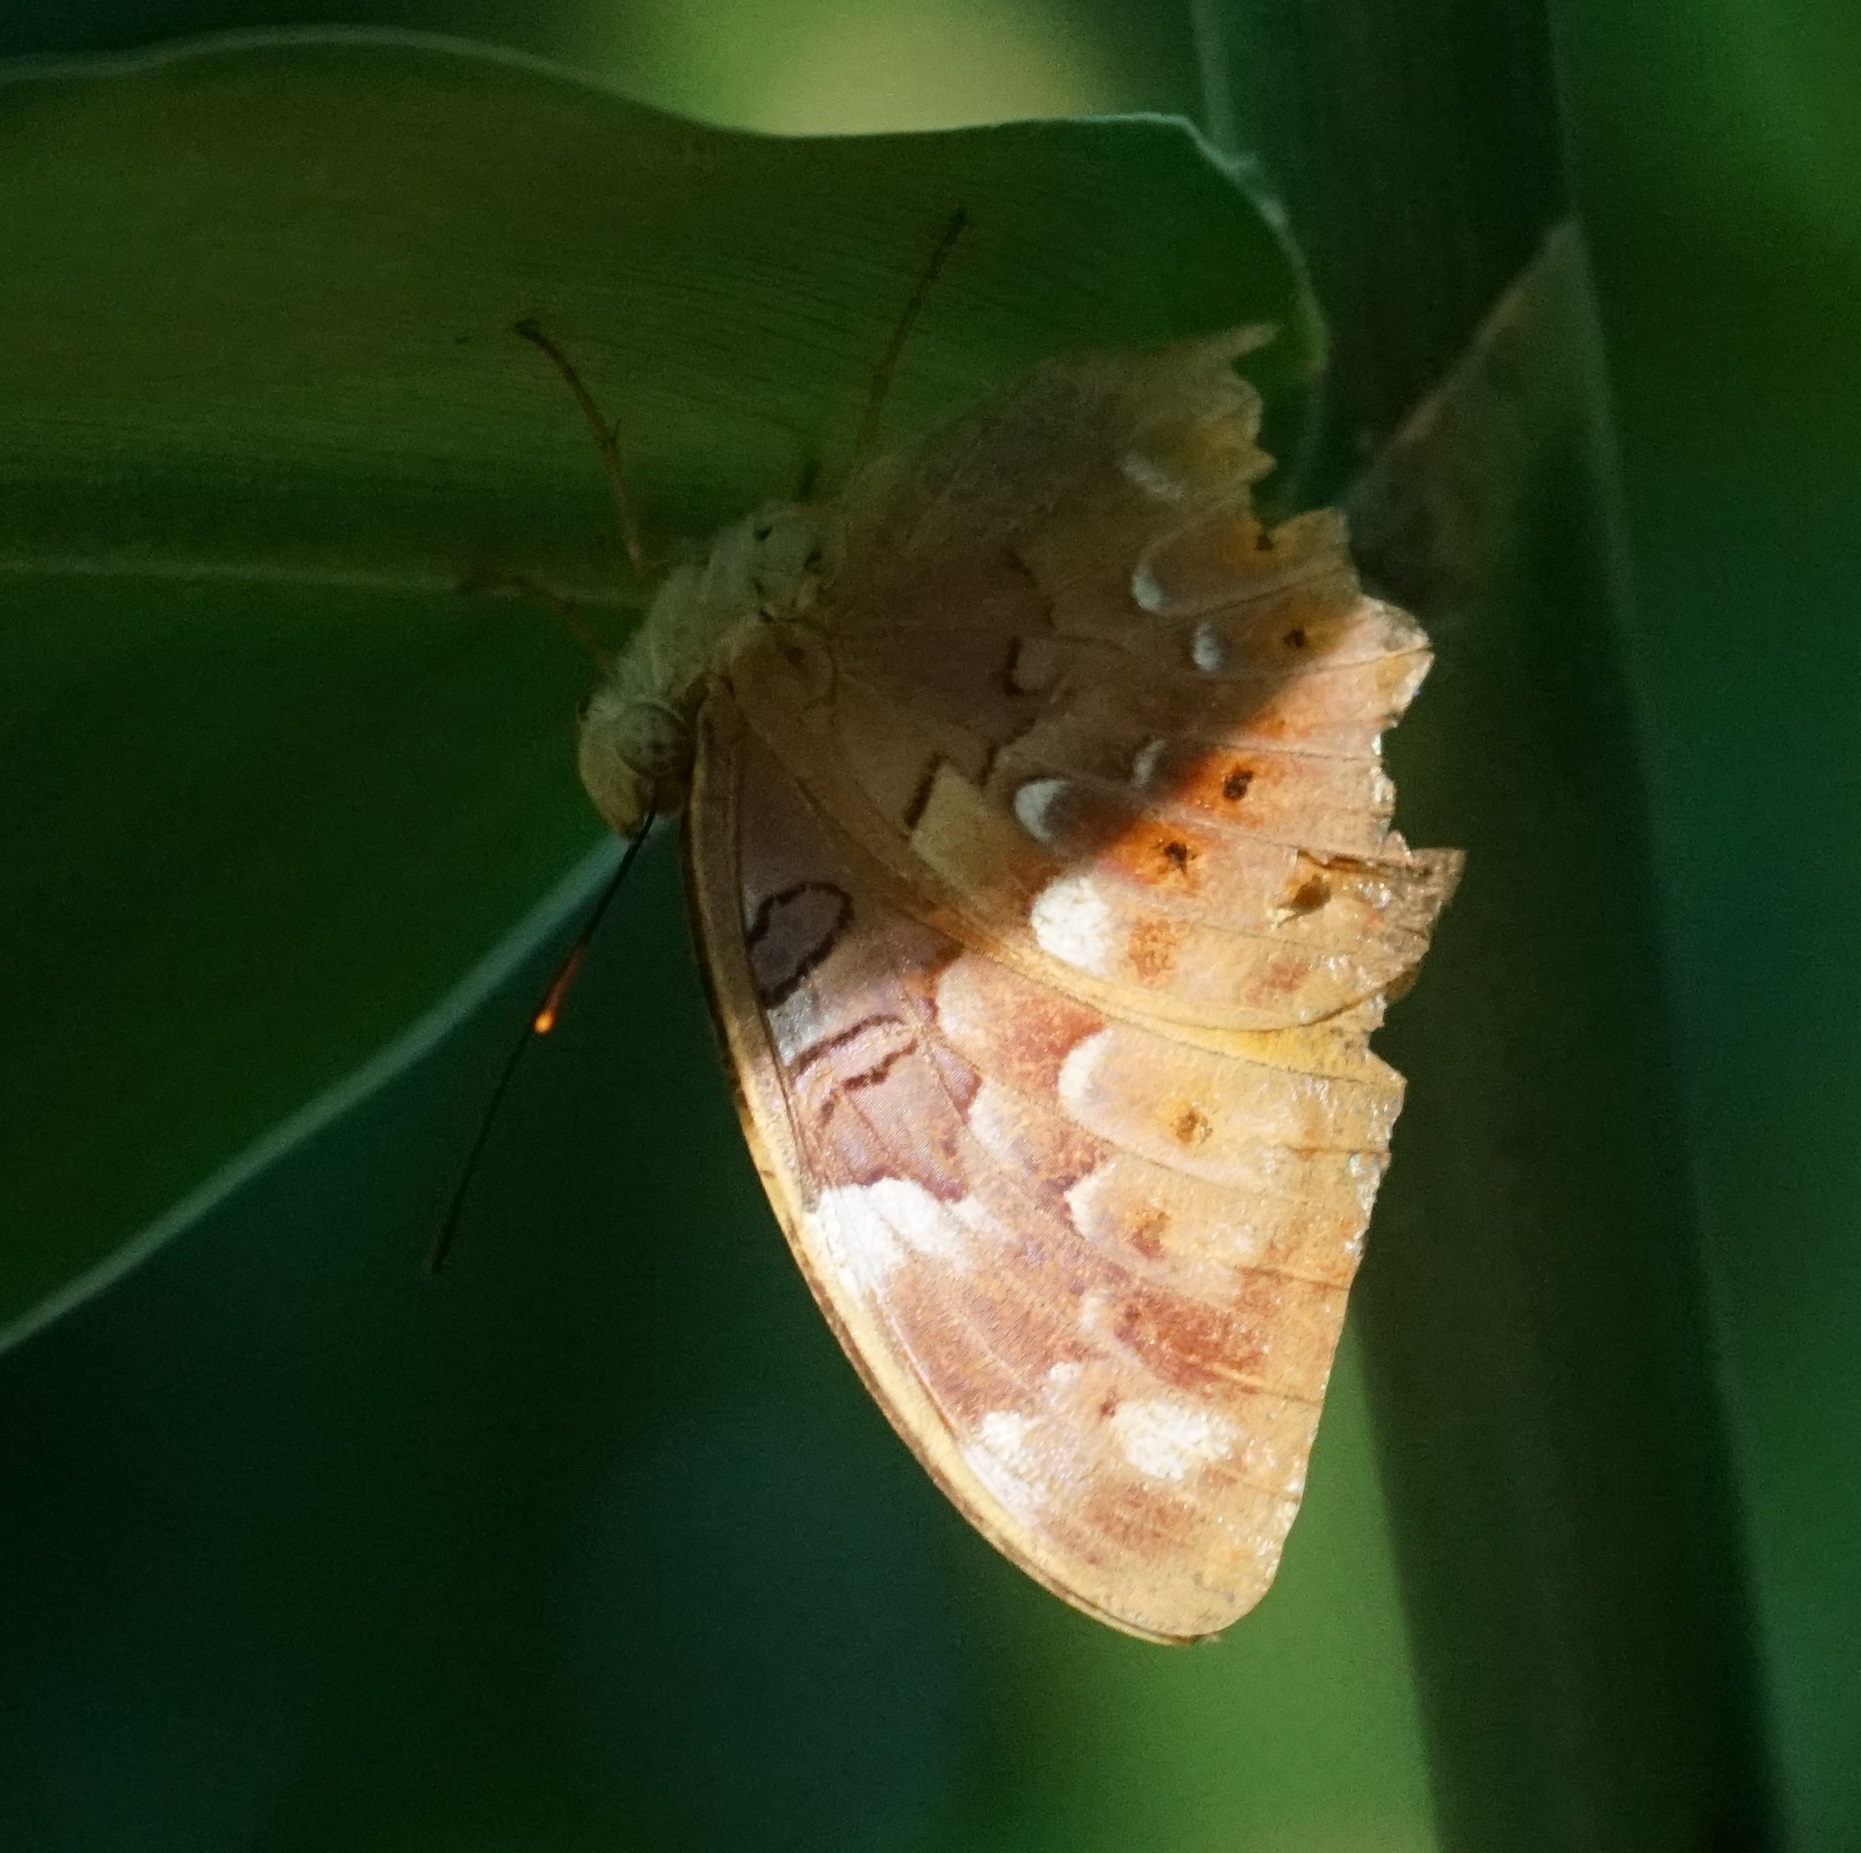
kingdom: Animalia
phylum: Arthropoda
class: Insecta
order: Lepidoptera
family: Nymphalidae
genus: Vagrans
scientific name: Vagrans egista
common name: Tailed rustic
